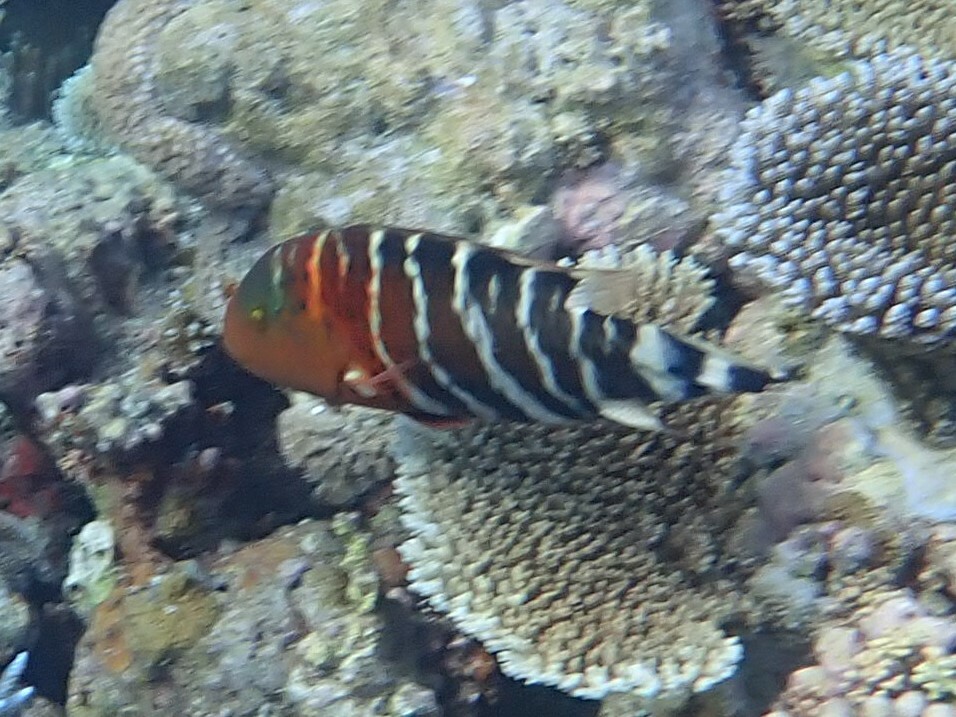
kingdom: Animalia
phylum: Chordata
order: Perciformes
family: Labridae
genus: Cheilinus
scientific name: Cheilinus fasciatus
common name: Red-breasted wrasse
